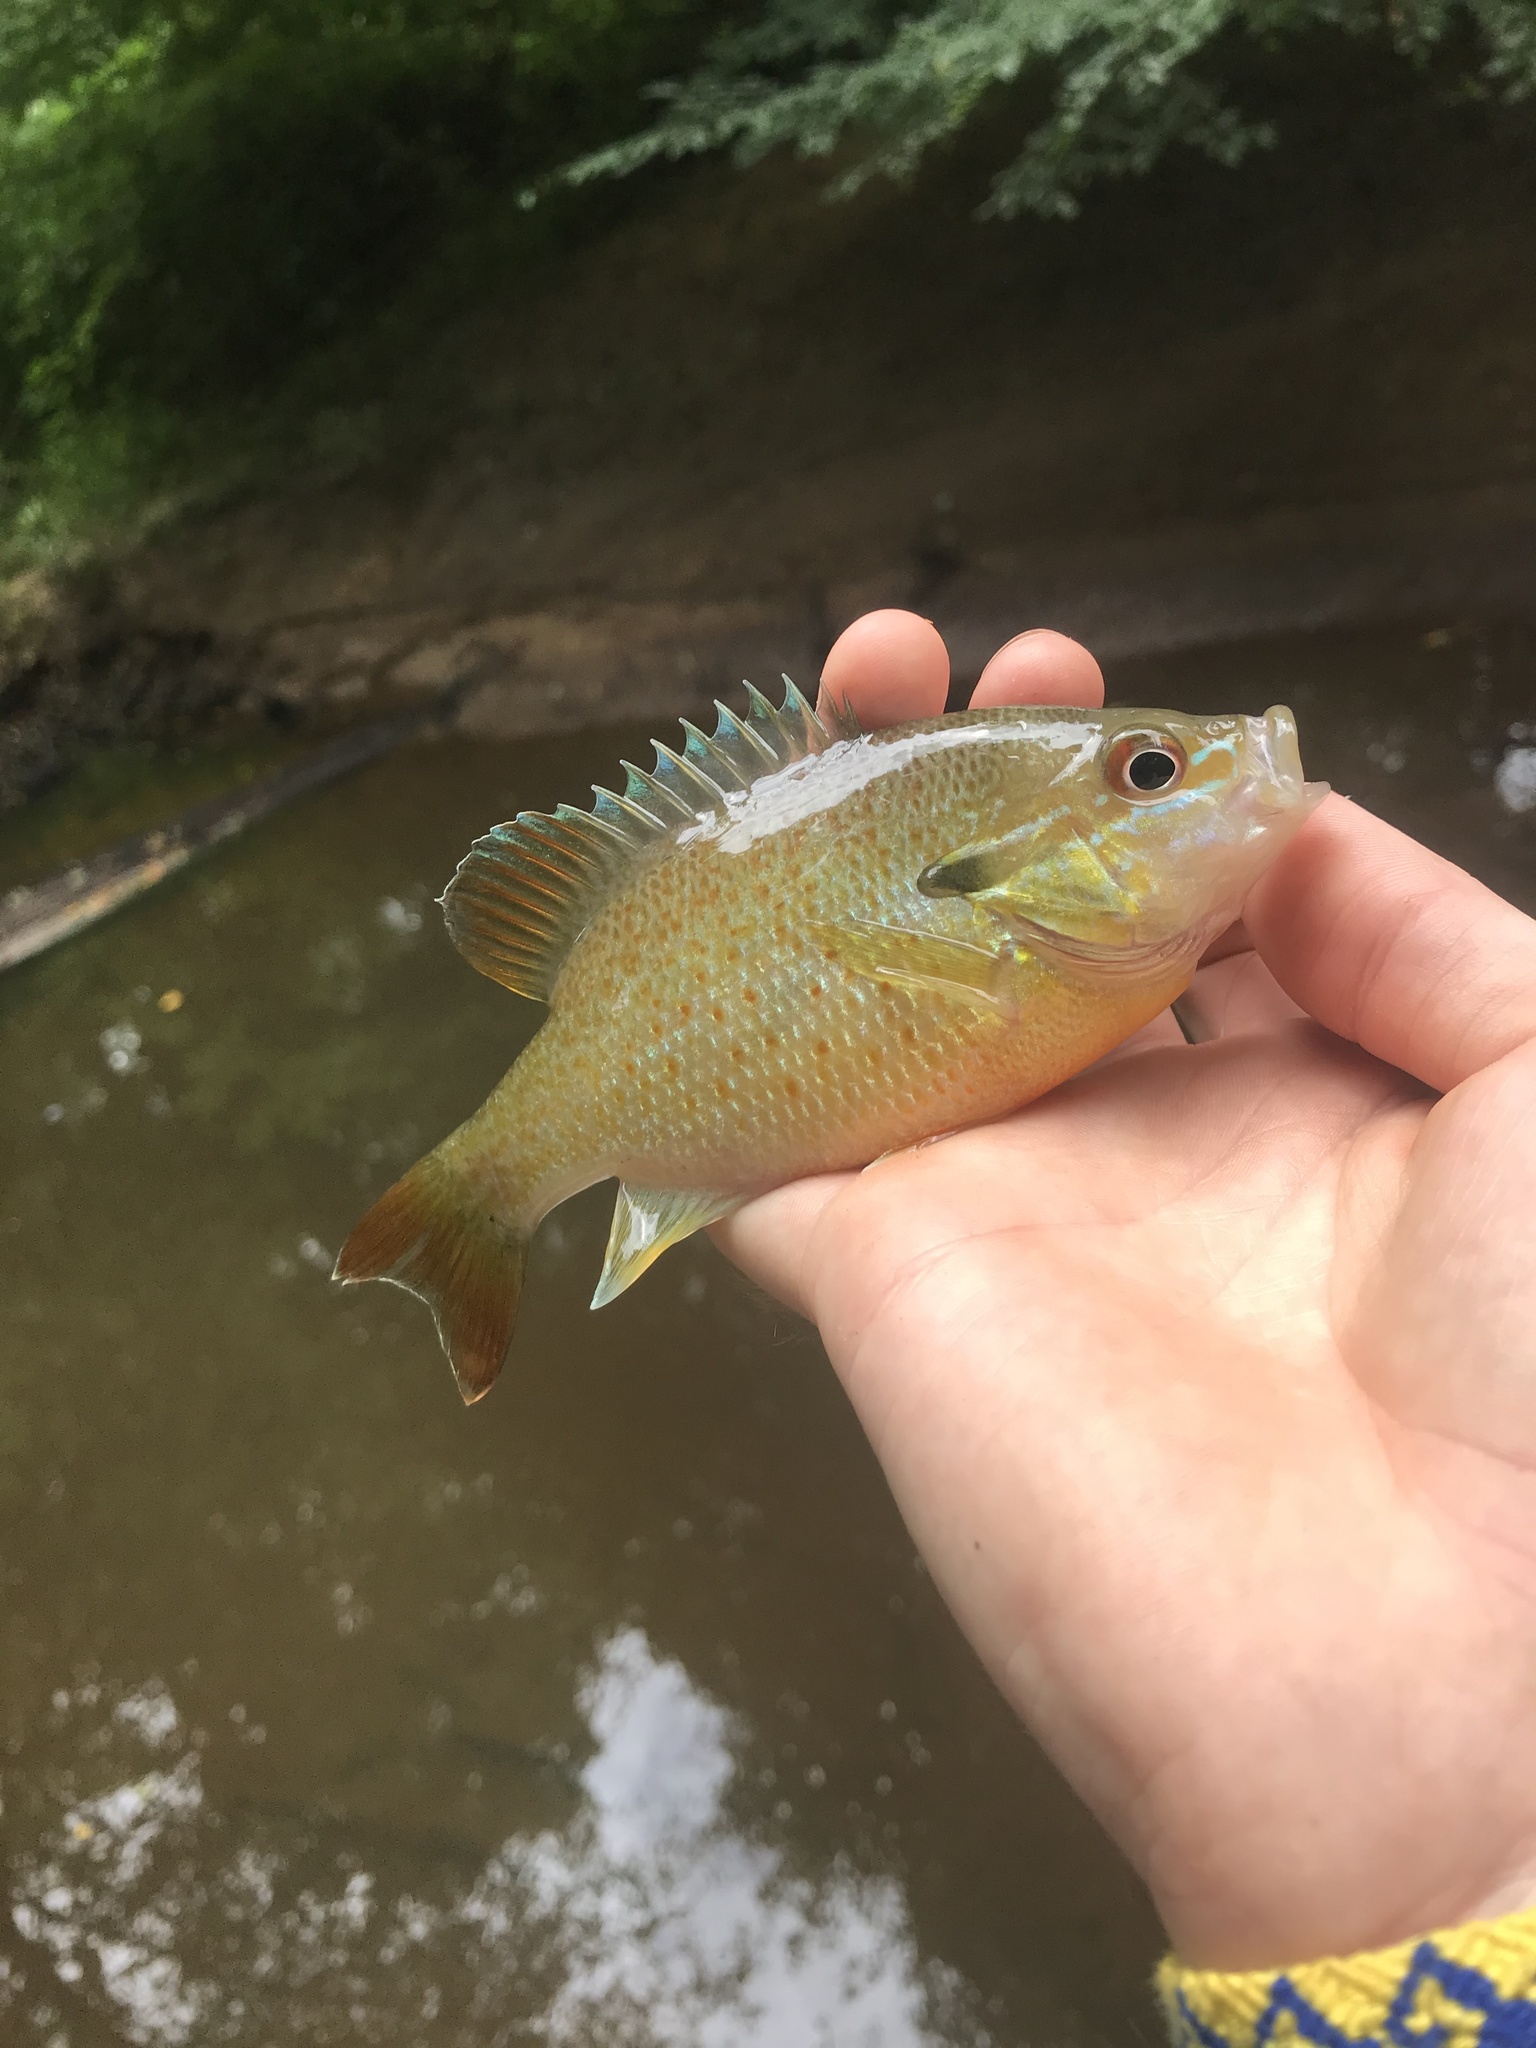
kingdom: Animalia
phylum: Chordata
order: Perciformes
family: Centrarchidae
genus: Lepomis
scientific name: Lepomis auritus
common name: Redbreast sunfish
